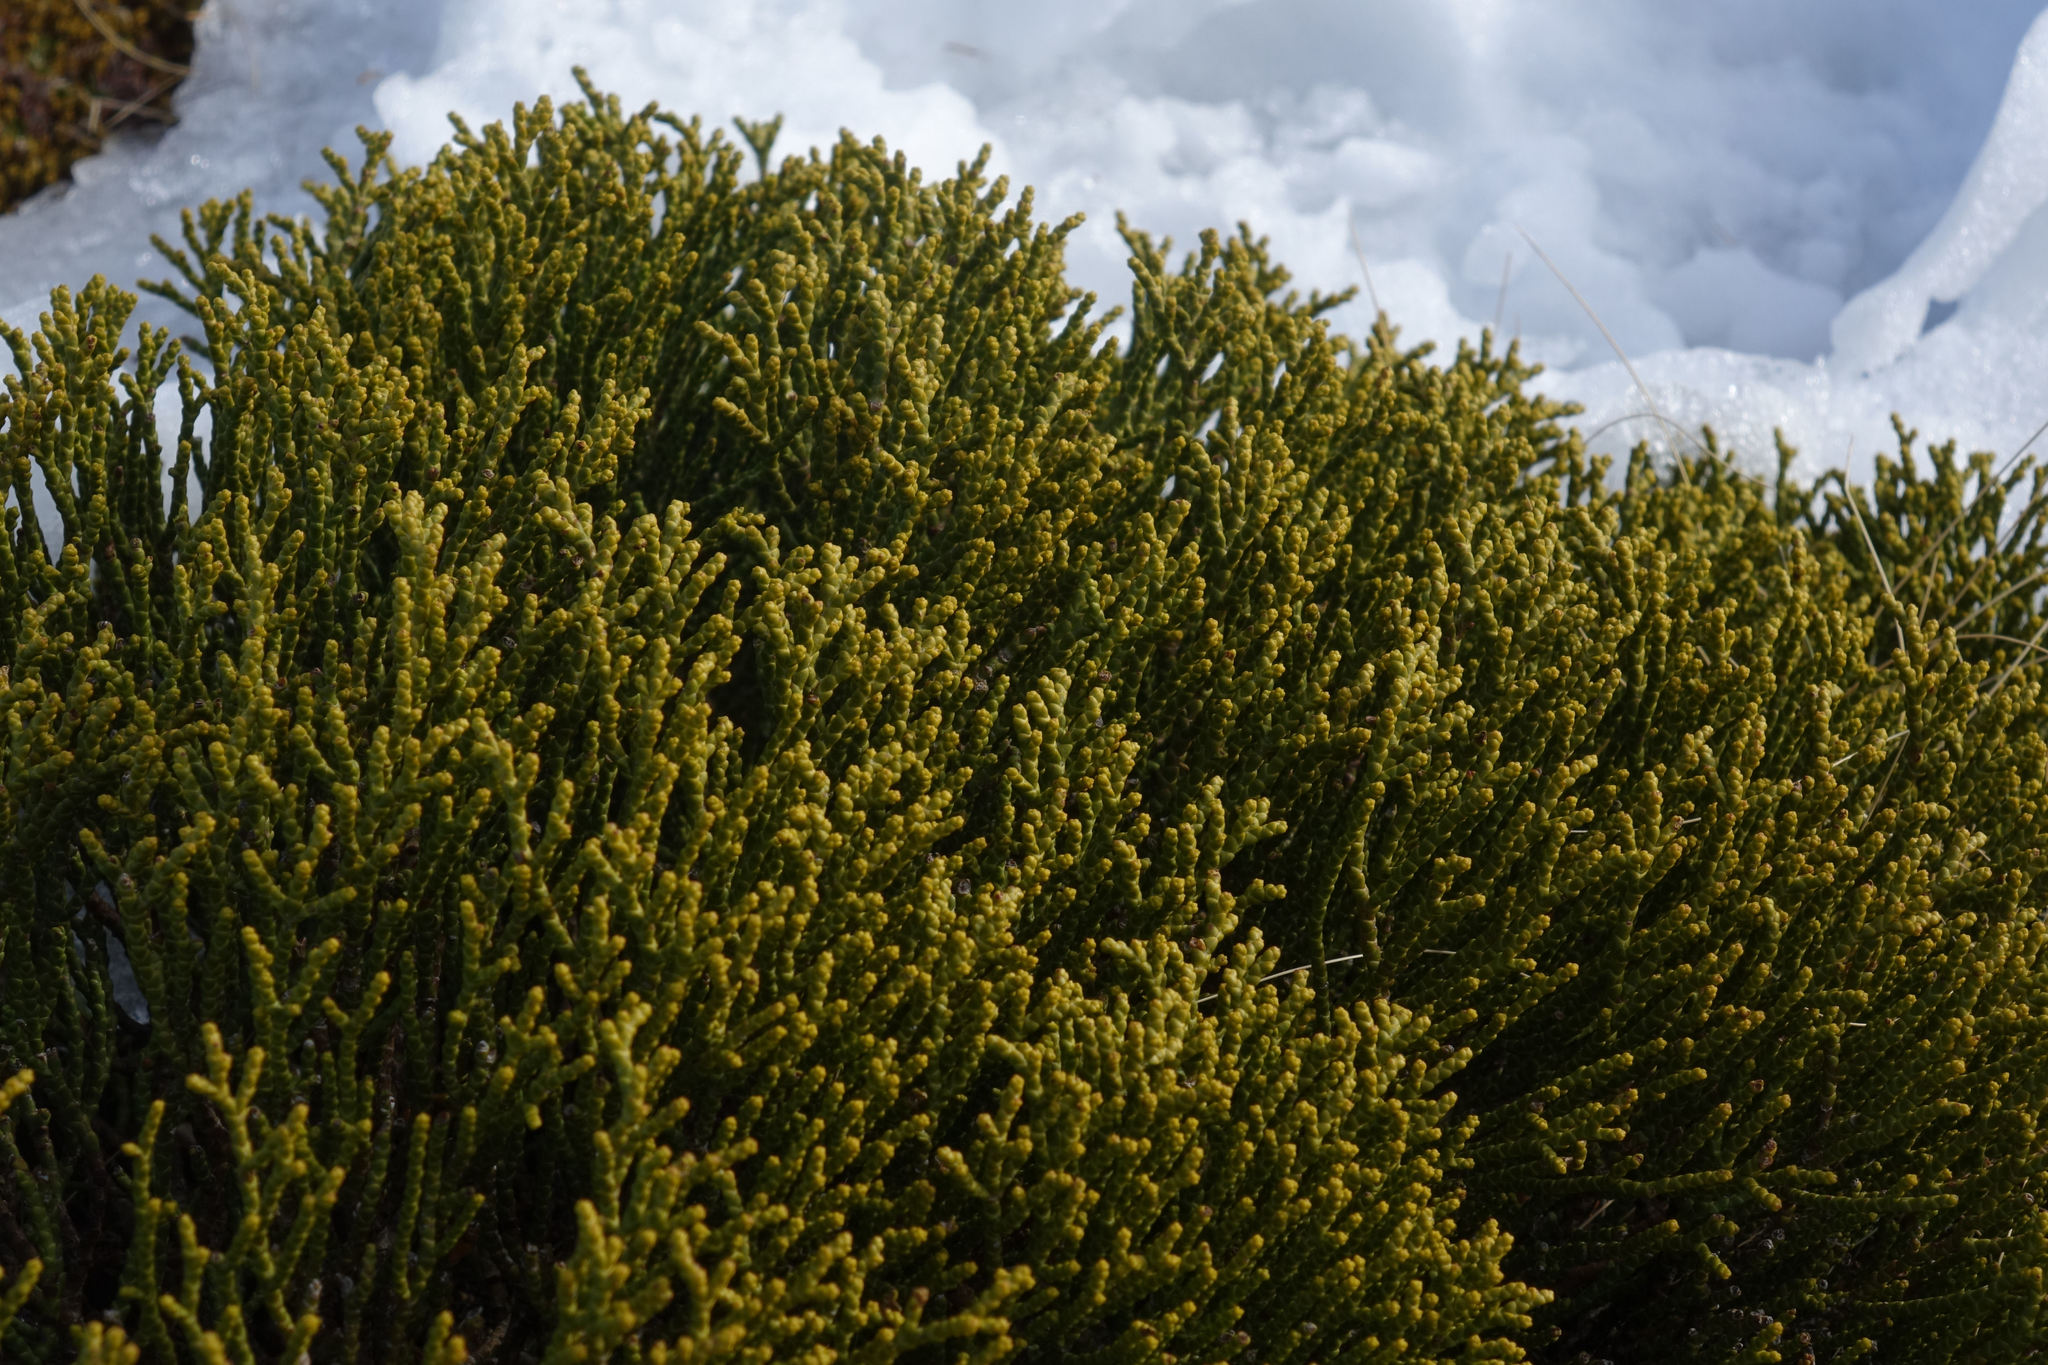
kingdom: Plantae
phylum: Tracheophyta
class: Magnoliopsida
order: Lamiales
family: Plantaginaceae
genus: Veronica
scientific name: Veronica propinqua
